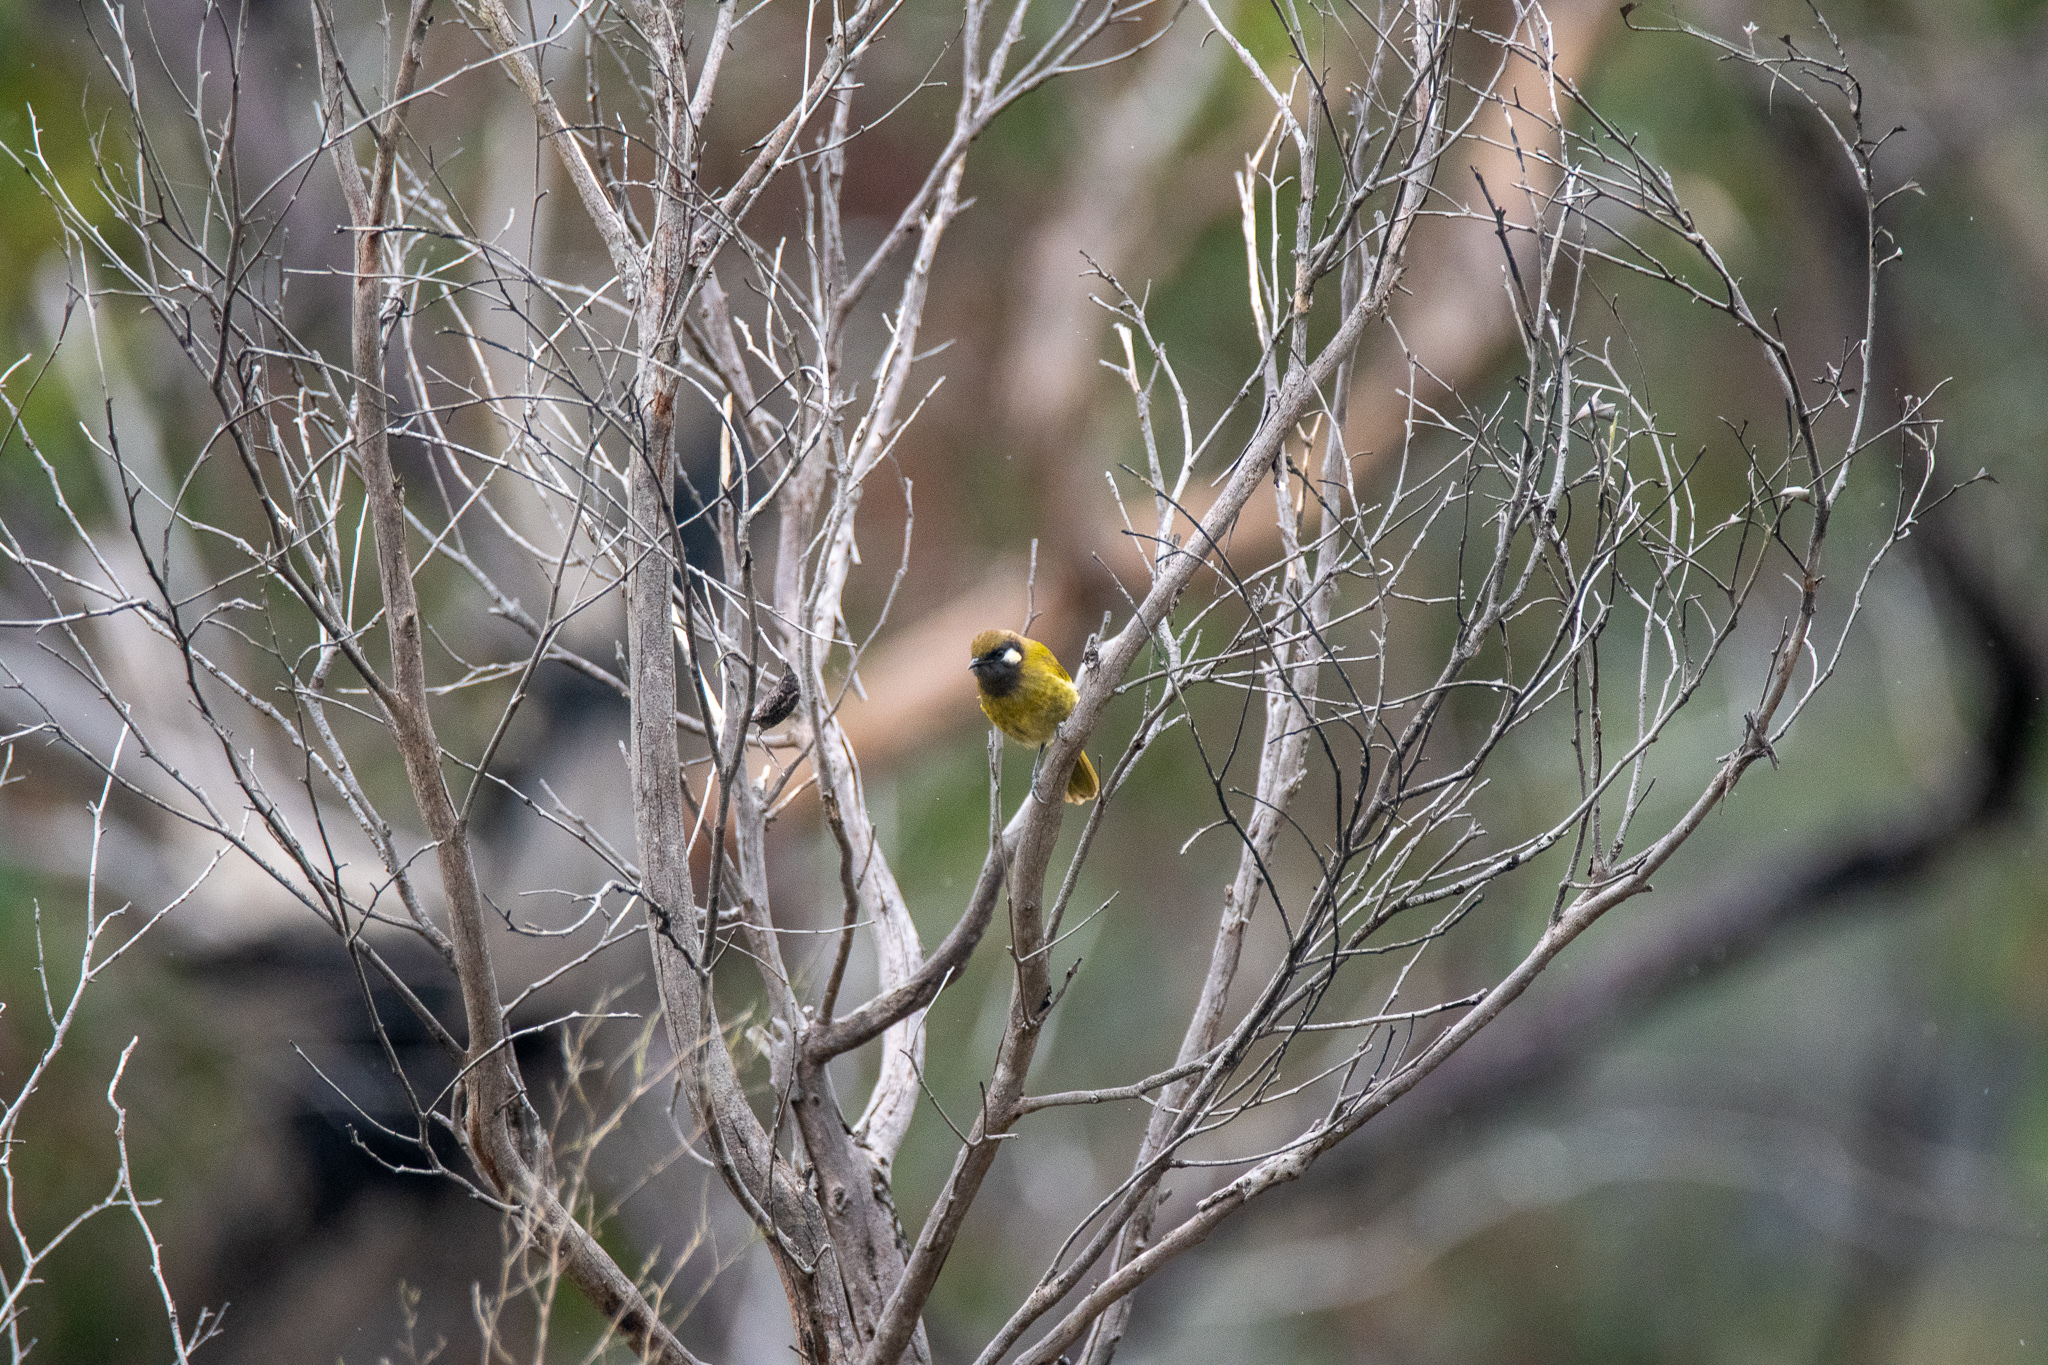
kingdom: Animalia
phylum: Chordata
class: Aves
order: Passeriformes
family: Meliphagidae
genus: Nesoptilotis
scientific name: Nesoptilotis leucotis
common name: White-eared honeyeater
